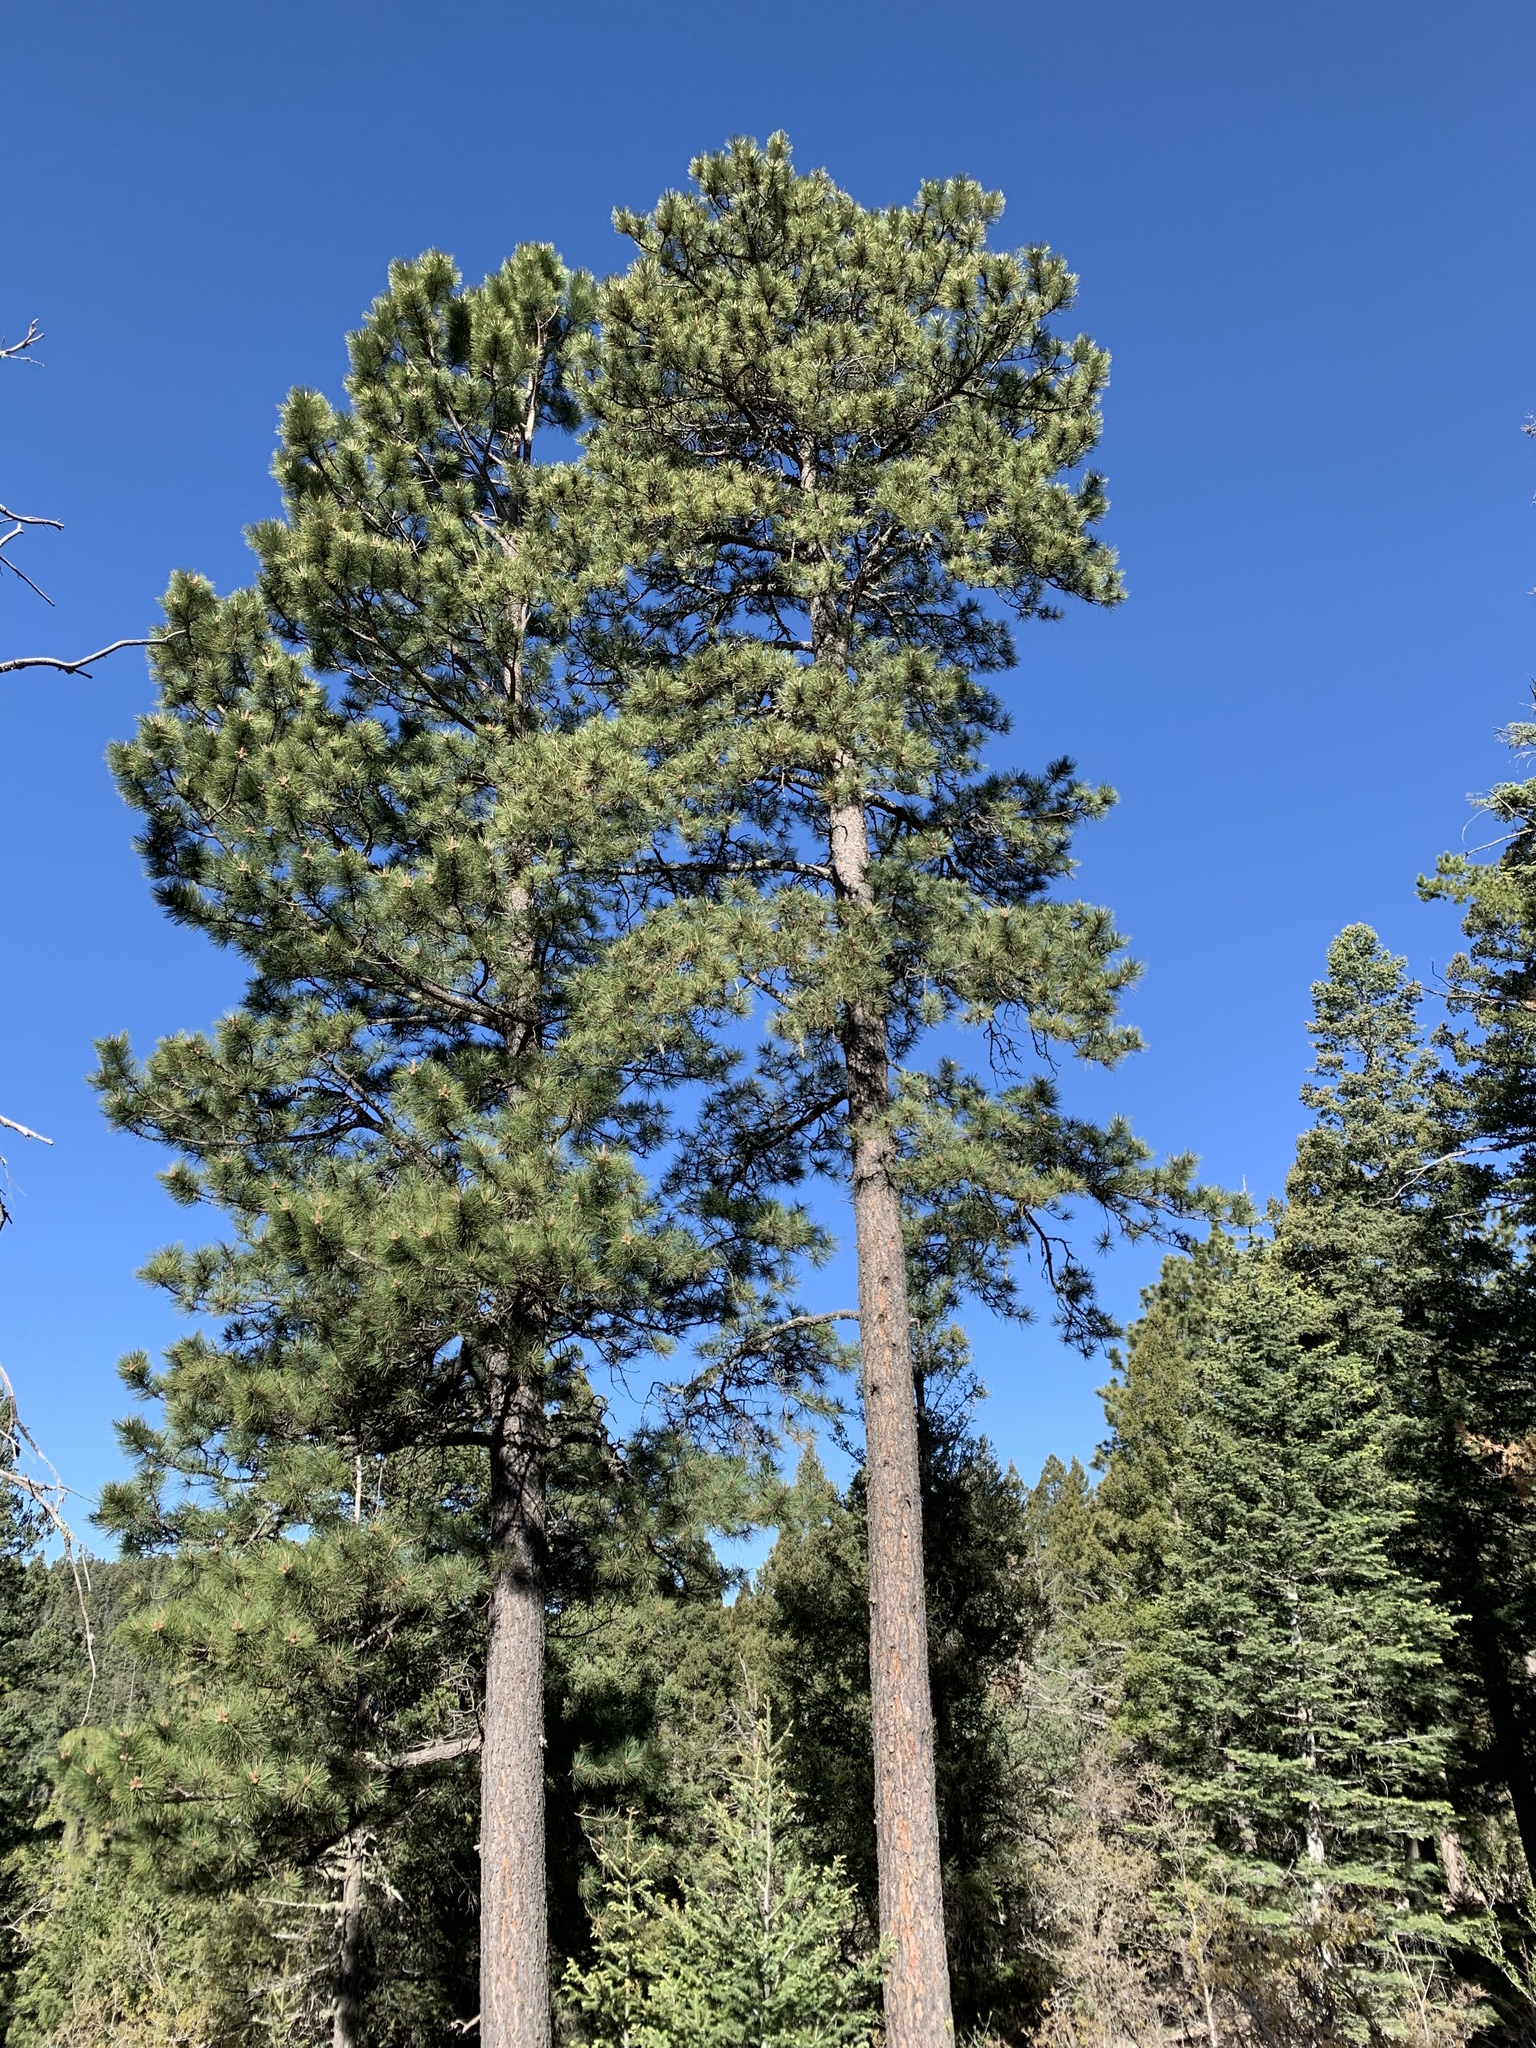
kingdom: Plantae
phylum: Tracheophyta
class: Pinopsida
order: Pinales
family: Pinaceae
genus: Pinus
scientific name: Pinus ponderosa
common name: Western yellow-pine
